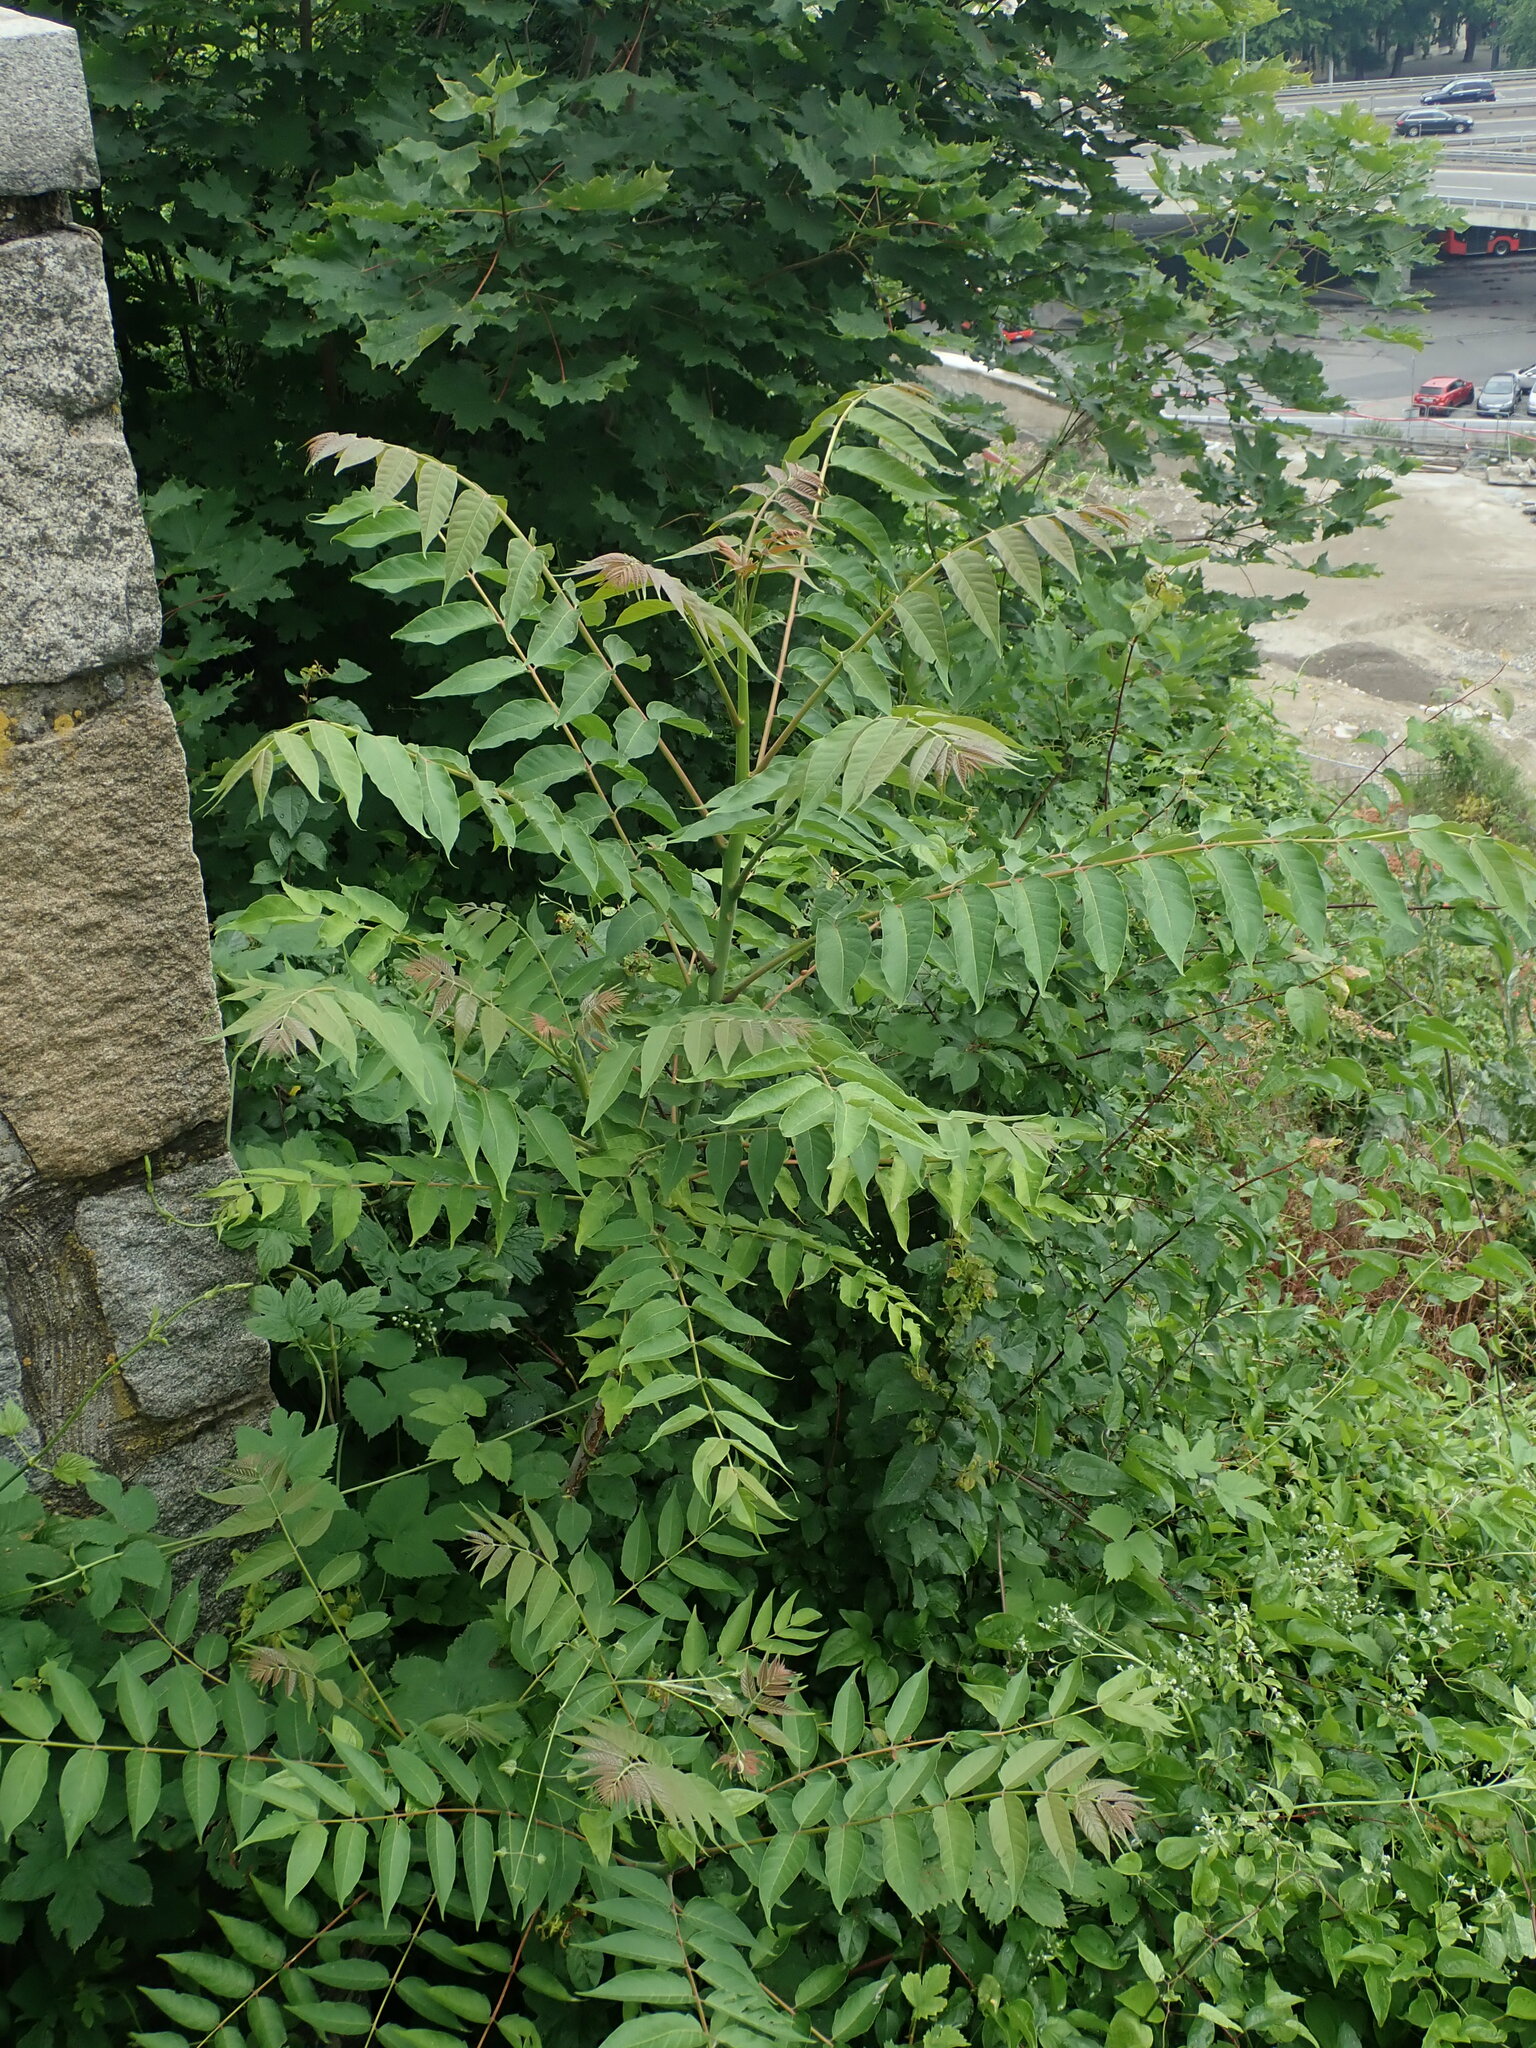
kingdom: Plantae
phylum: Tracheophyta
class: Magnoliopsida
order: Sapindales
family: Simaroubaceae
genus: Ailanthus
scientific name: Ailanthus altissima
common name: Tree-of-heaven
